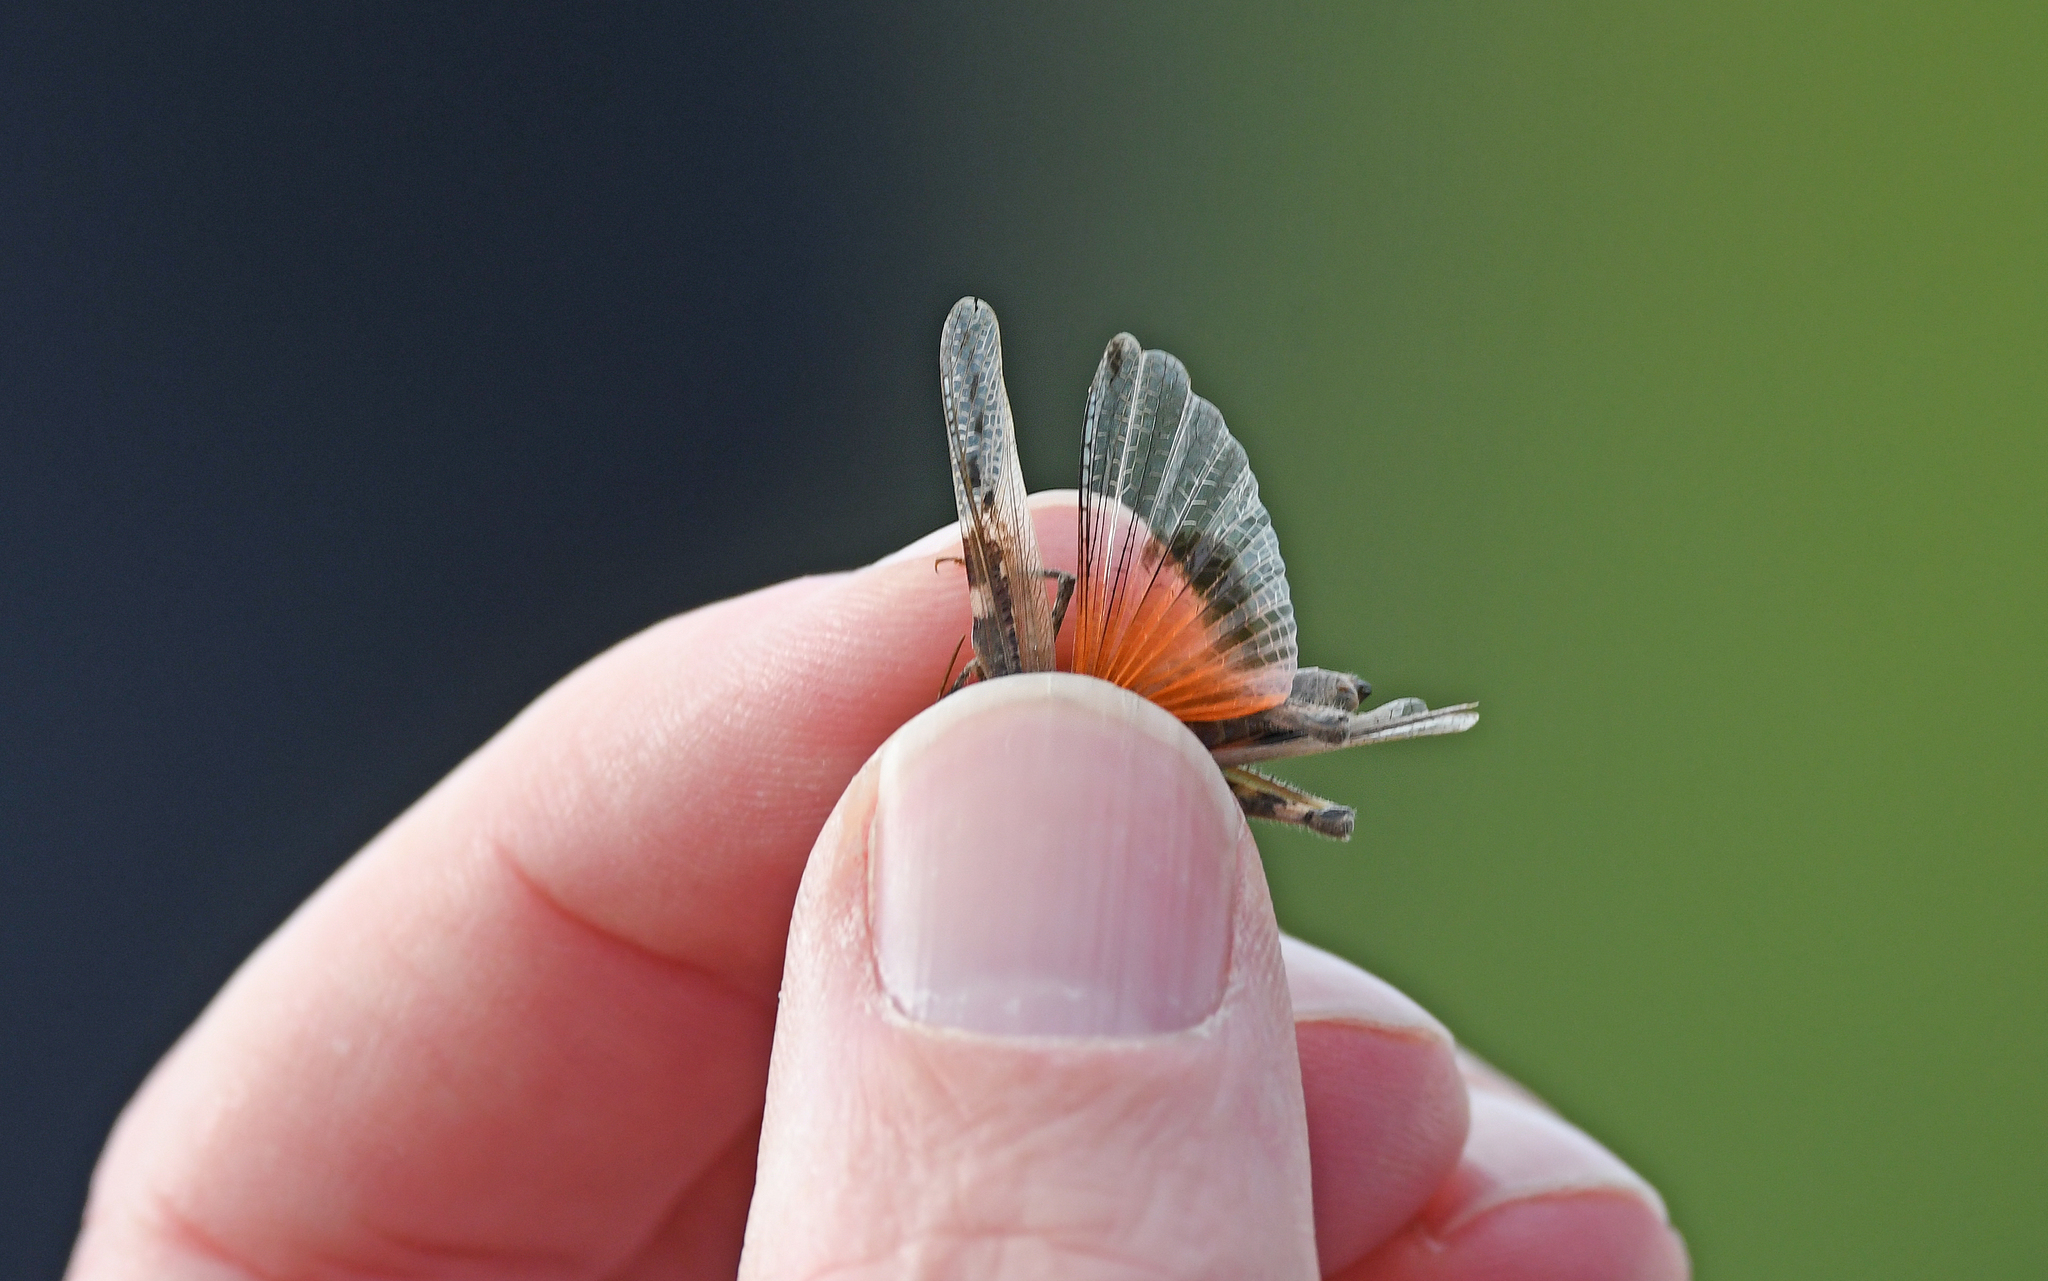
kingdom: Animalia
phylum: Arthropoda
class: Insecta
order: Orthoptera
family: Acrididae
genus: Acrotylus
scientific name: Acrotylus insubricus
